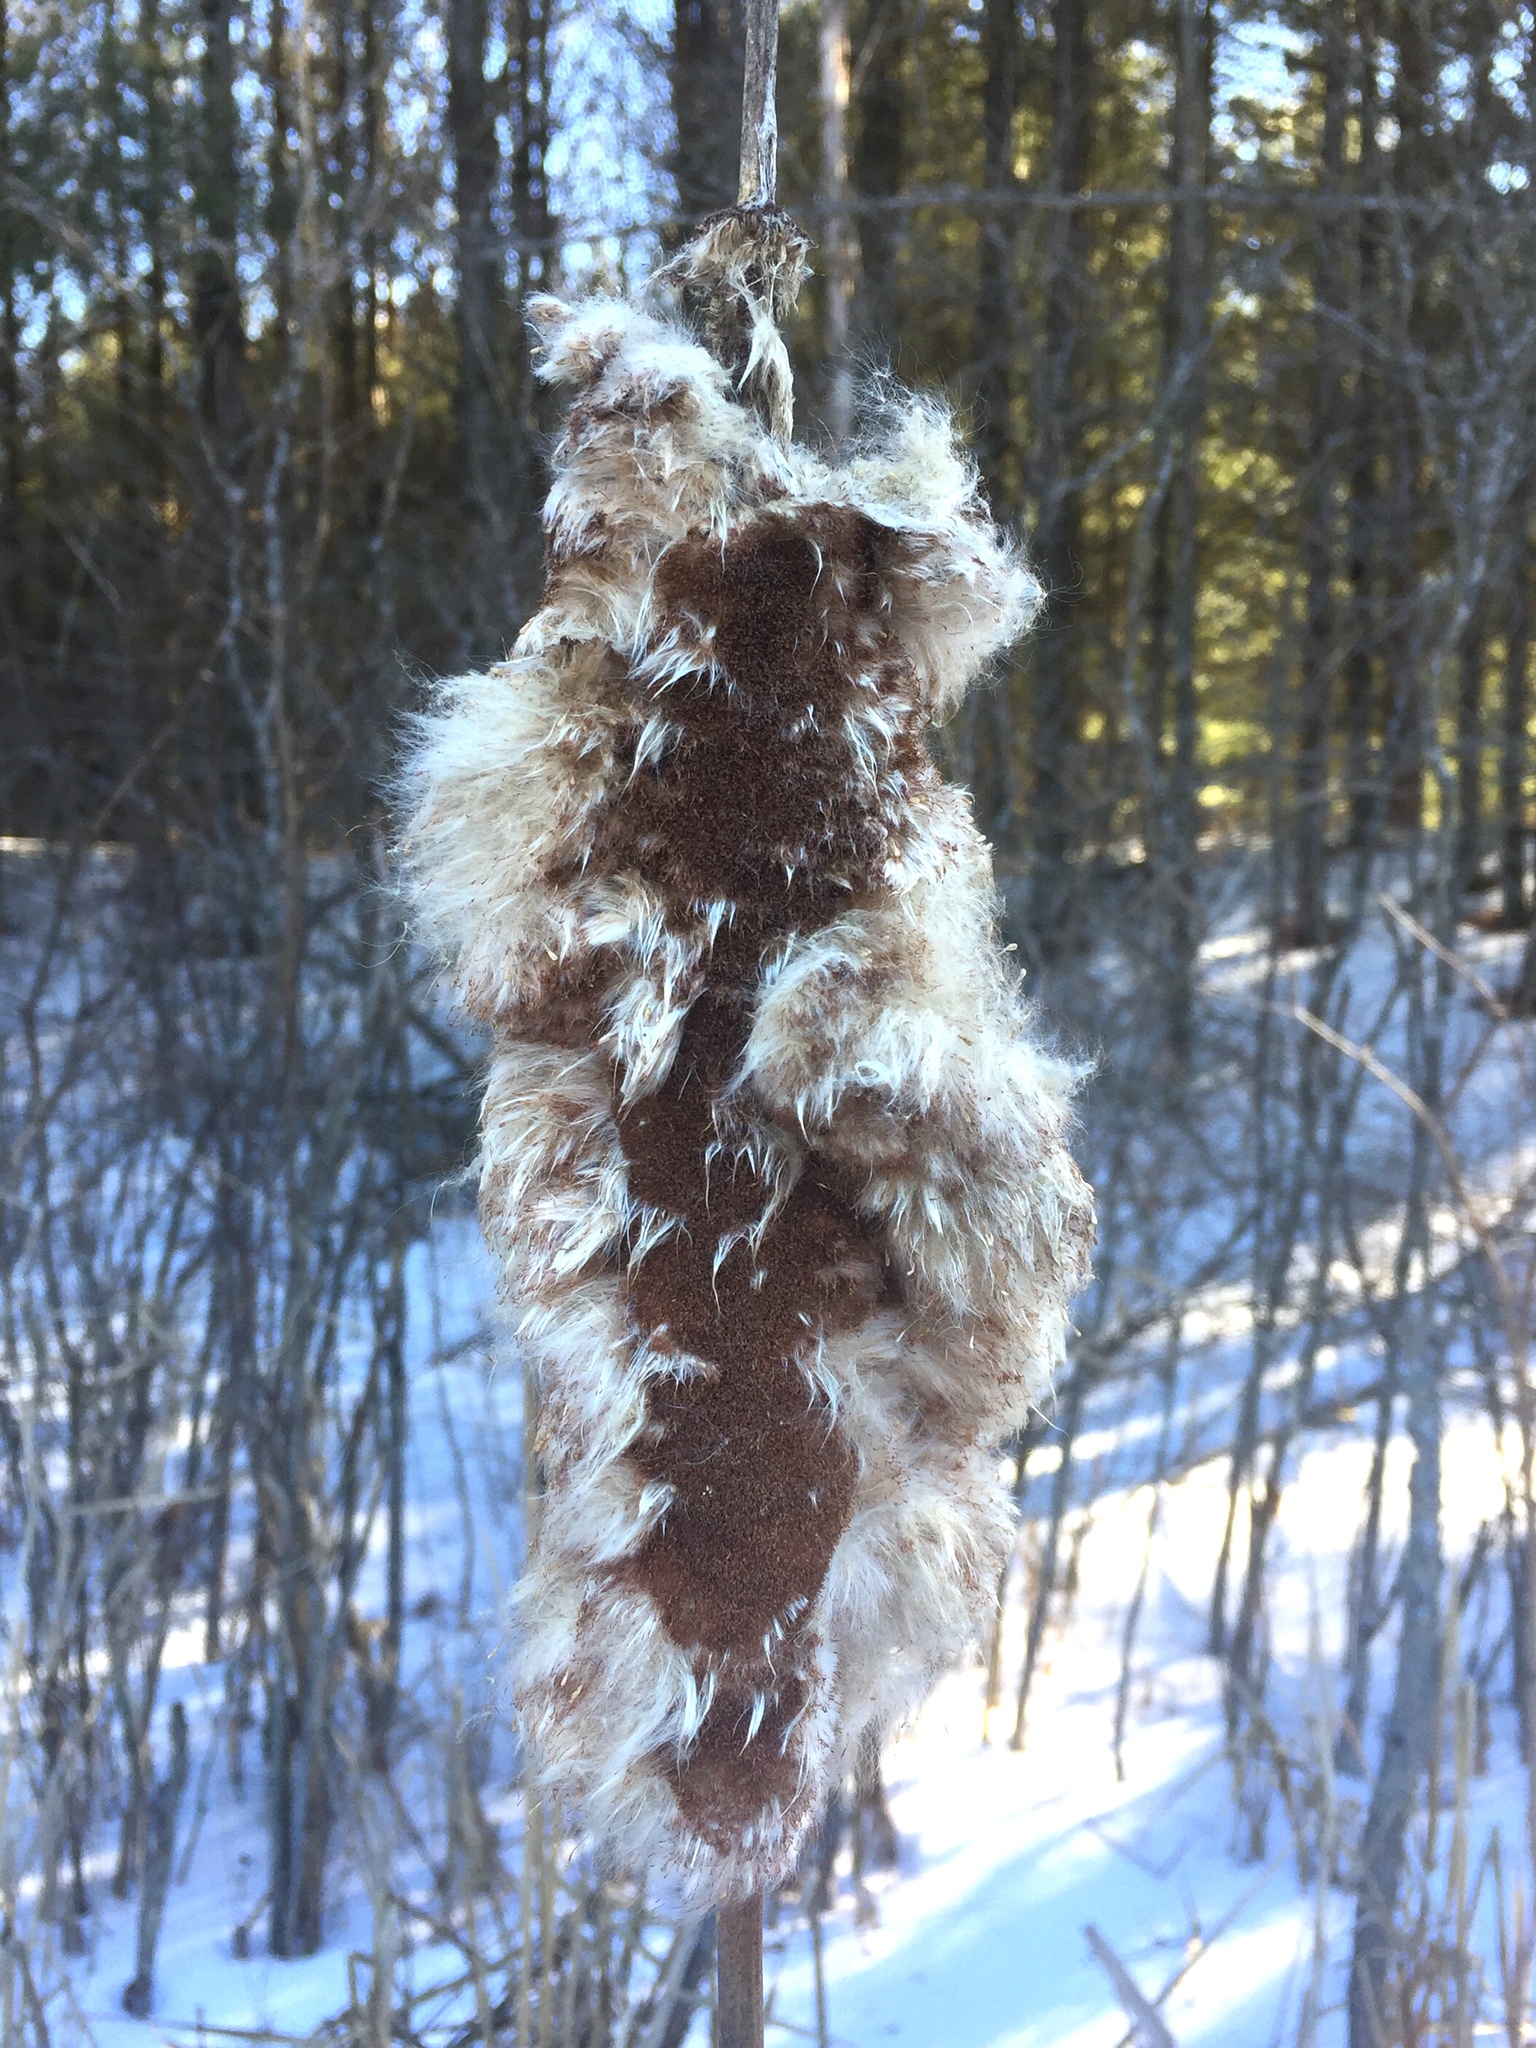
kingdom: Plantae
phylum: Tracheophyta
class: Liliopsida
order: Poales
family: Typhaceae
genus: Typha
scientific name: Typha latifolia
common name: Broadleaf cattail
